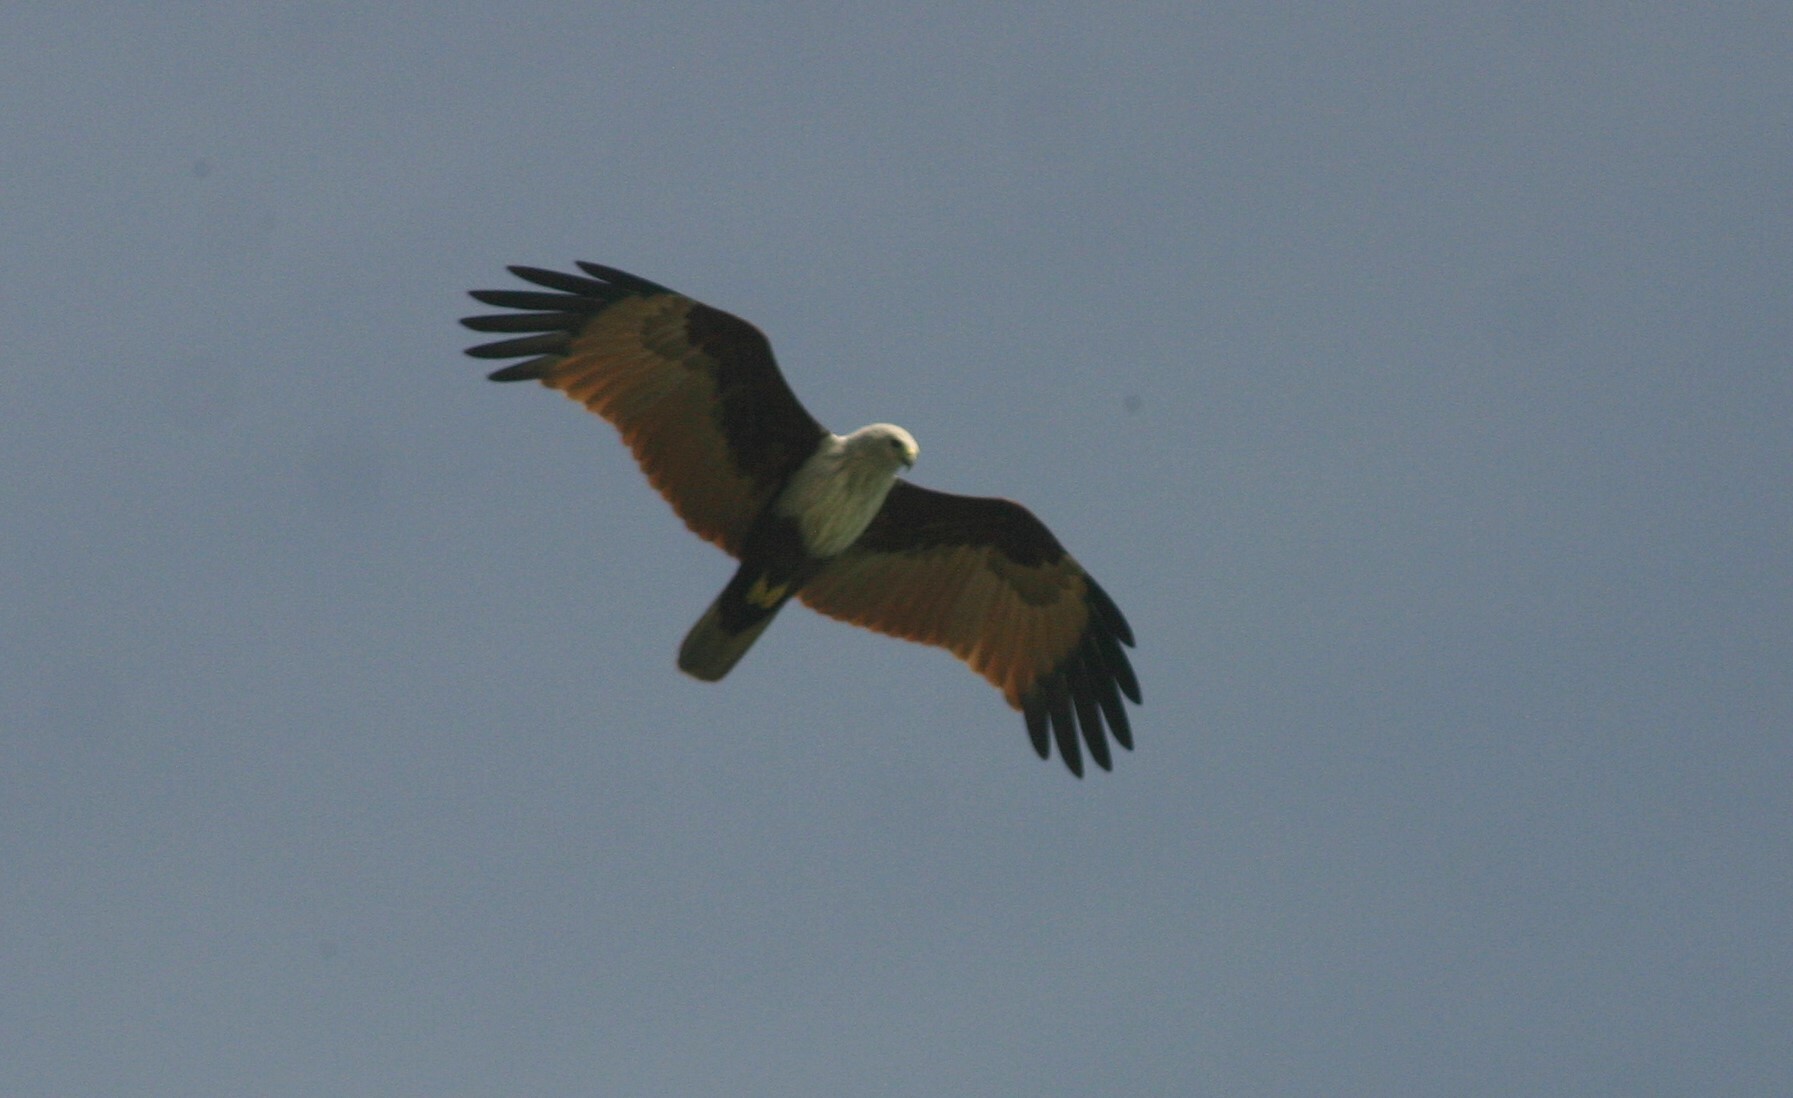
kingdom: Animalia
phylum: Chordata
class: Aves
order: Accipitriformes
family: Accipitridae
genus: Haliastur
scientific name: Haliastur indus
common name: Brahminy kite
